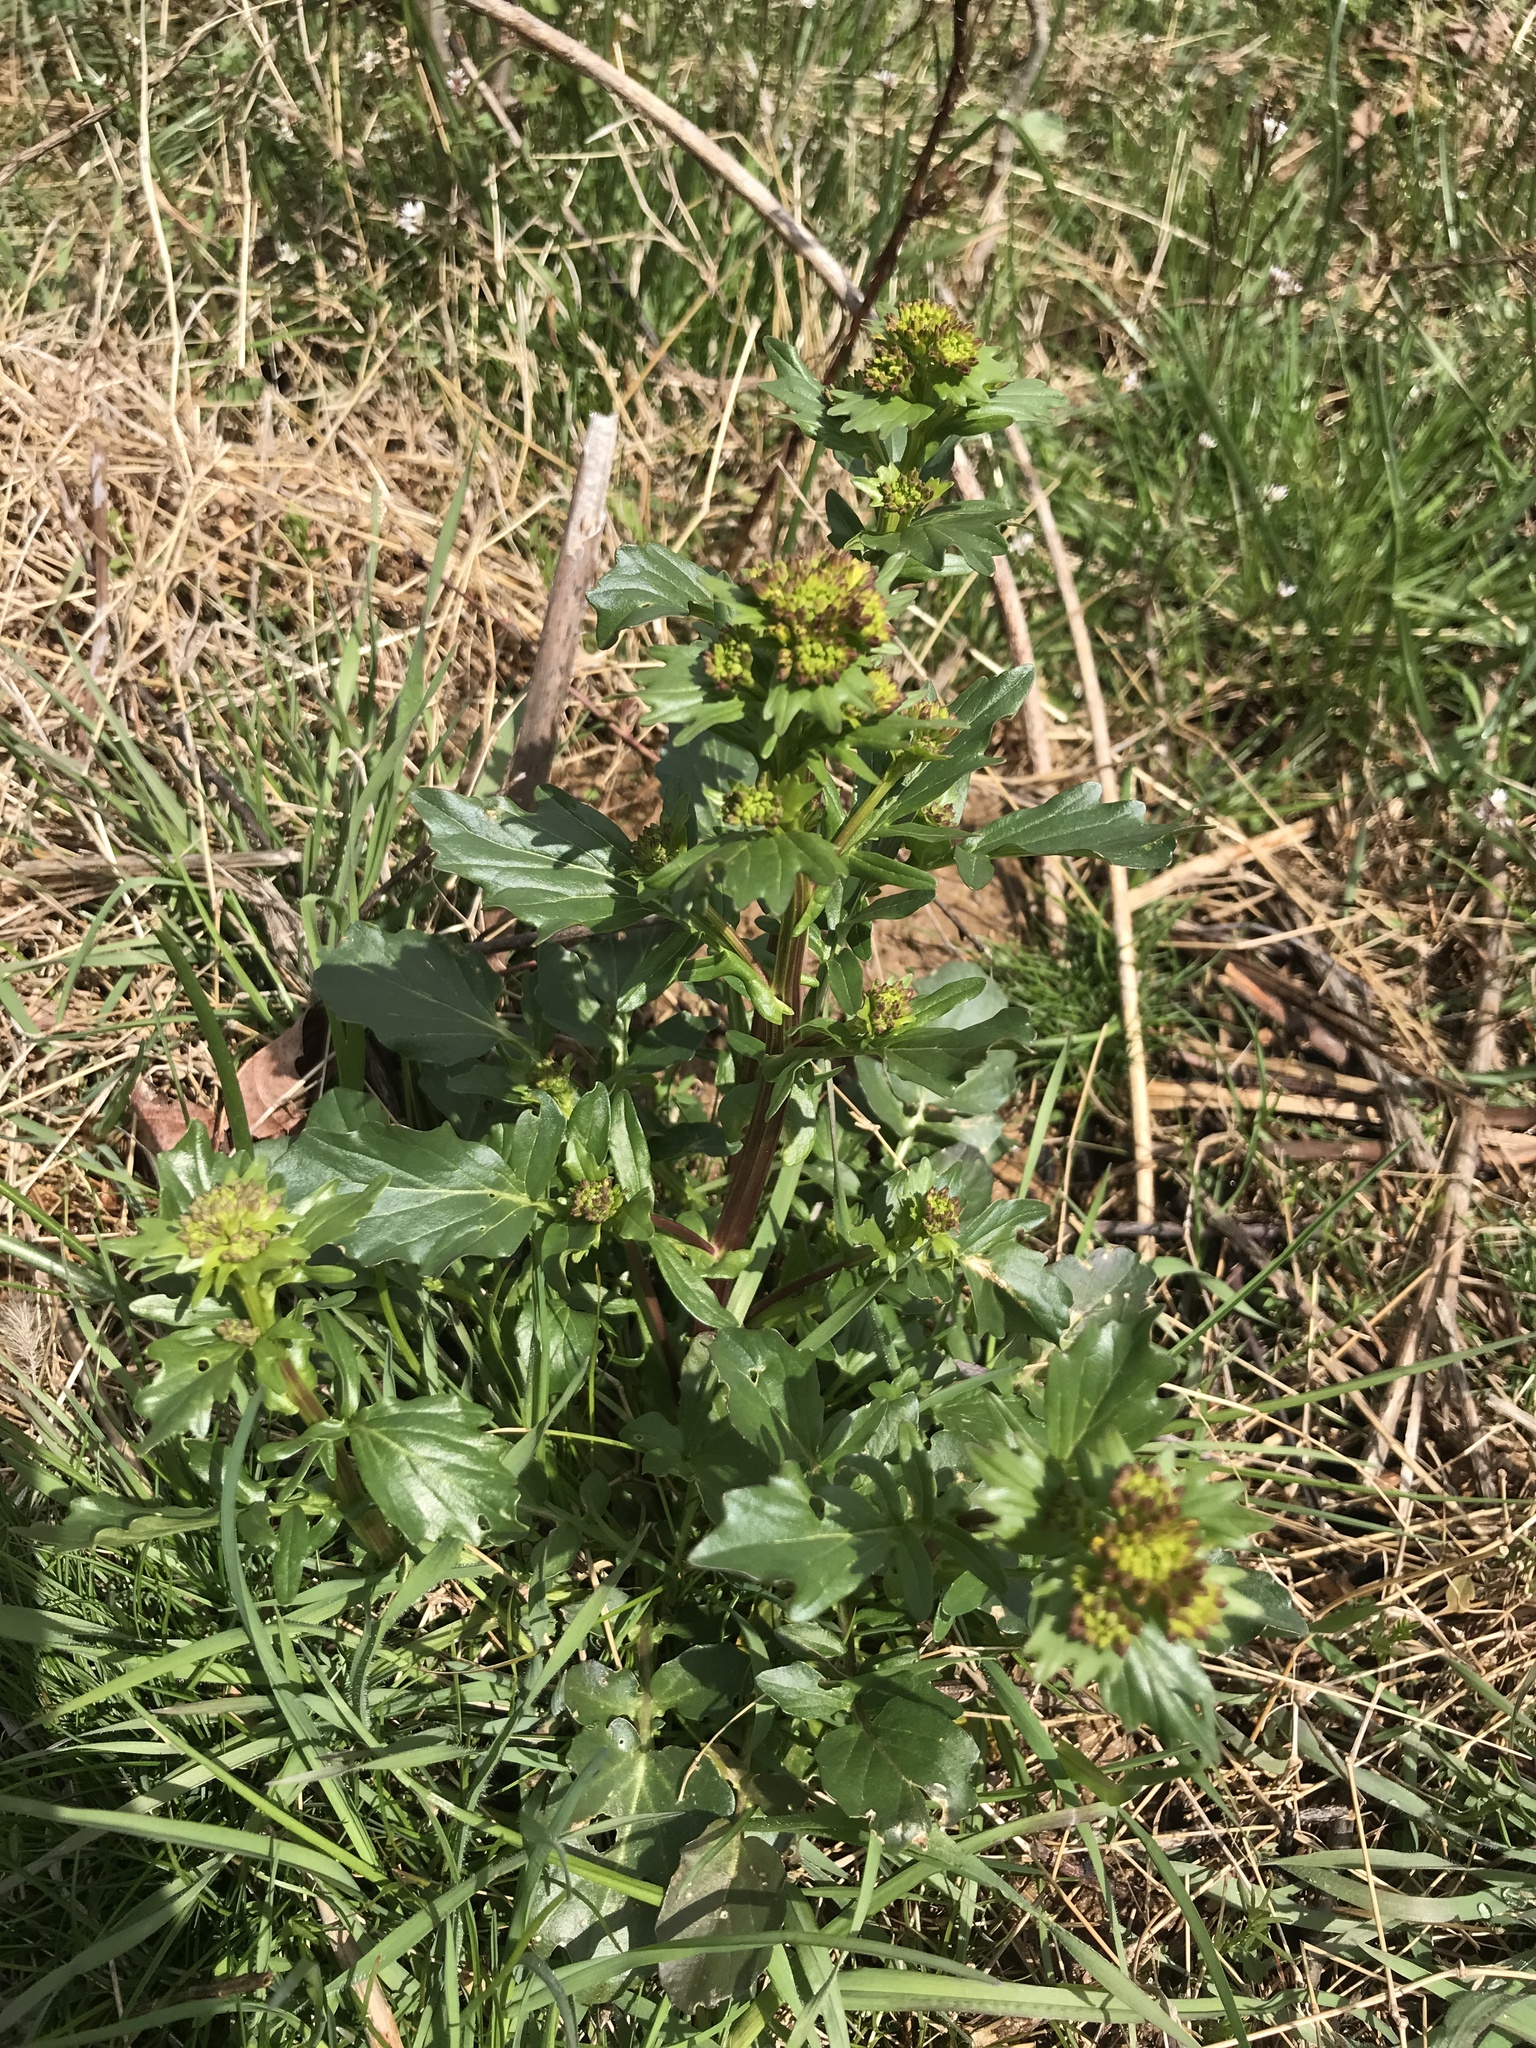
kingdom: Plantae
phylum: Tracheophyta
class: Magnoliopsida
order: Brassicales
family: Brassicaceae
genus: Barbarea
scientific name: Barbarea vulgaris
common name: Cressy-greens
